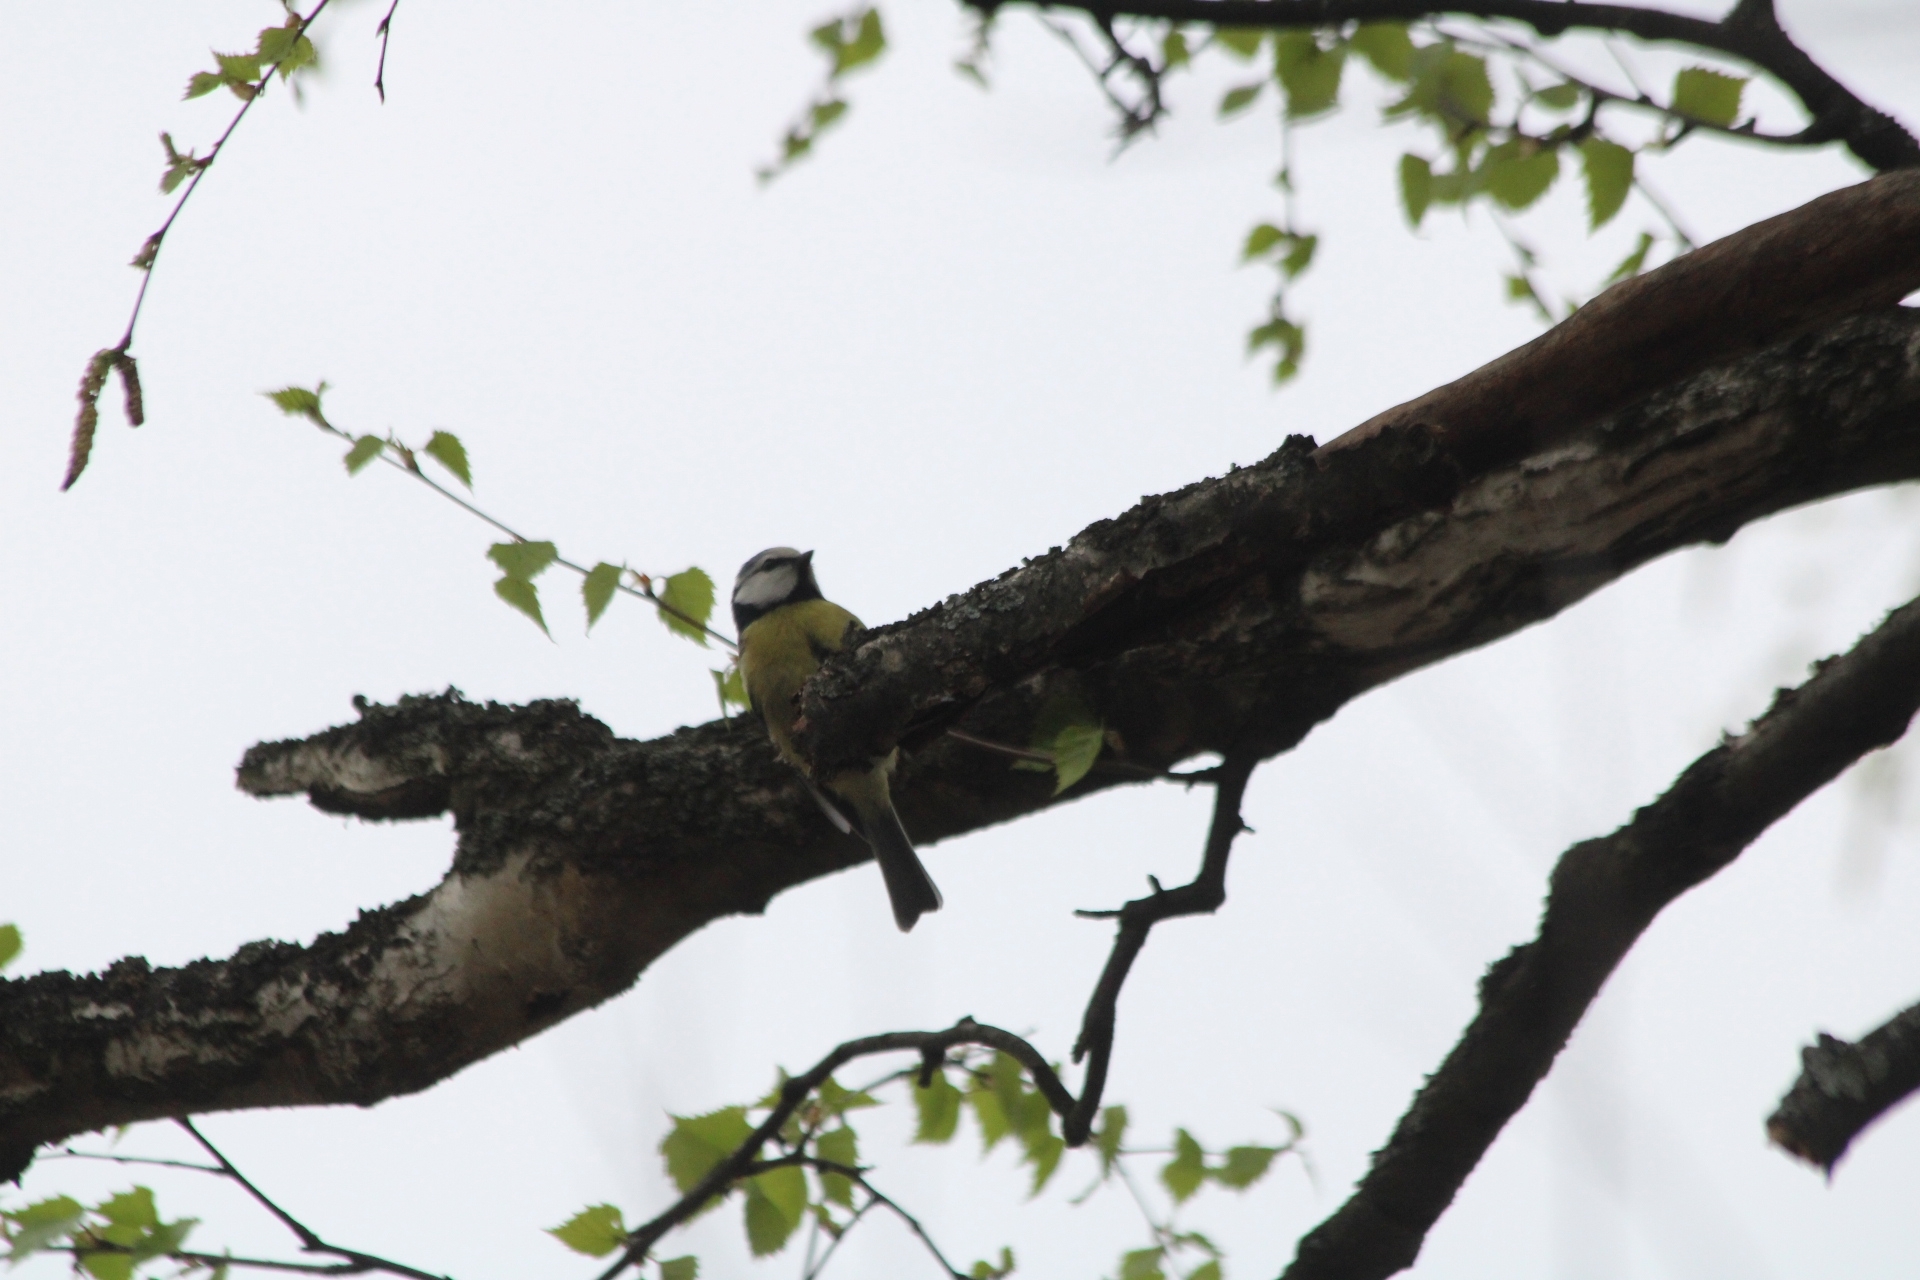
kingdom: Animalia
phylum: Chordata
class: Aves
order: Passeriformes
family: Paridae
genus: Cyanistes
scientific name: Cyanistes caeruleus
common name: Eurasian blue tit
